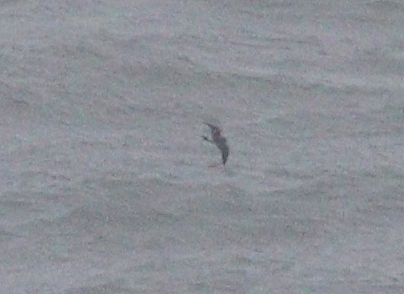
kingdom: Animalia
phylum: Chordata
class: Aves
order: Procellariiformes
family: Hydrobatidae
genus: Oceanodroma
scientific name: Oceanodroma leucorhoa
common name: Leach's storm-petrel
